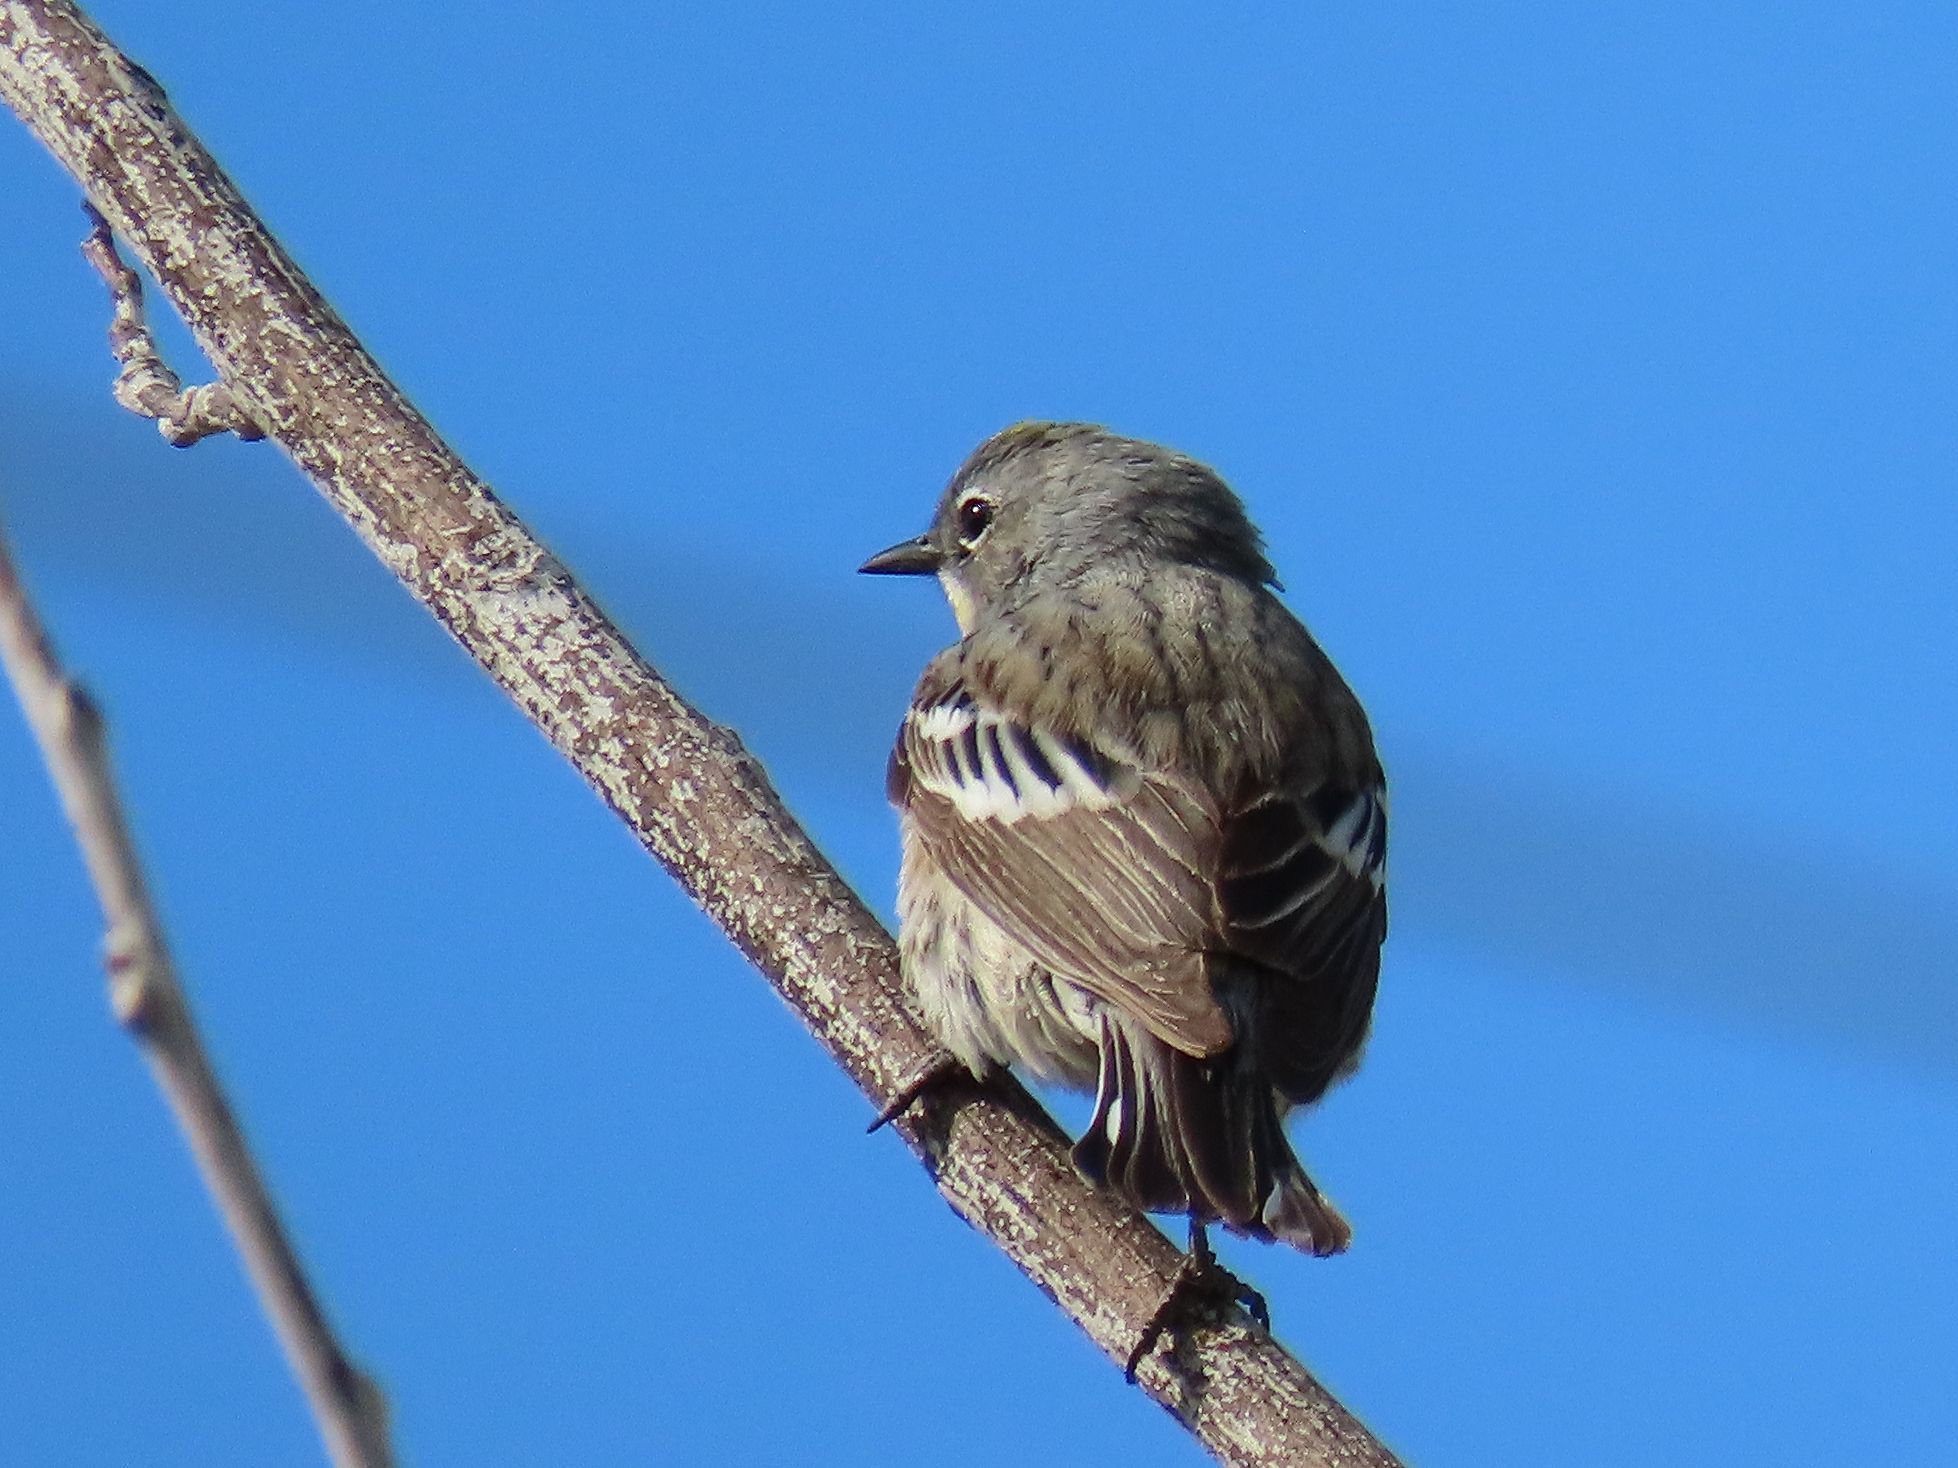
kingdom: Animalia
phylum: Chordata
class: Aves
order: Passeriformes
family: Parulidae
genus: Setophaga
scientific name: Setophaga coronata
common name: Myrtle warbler
